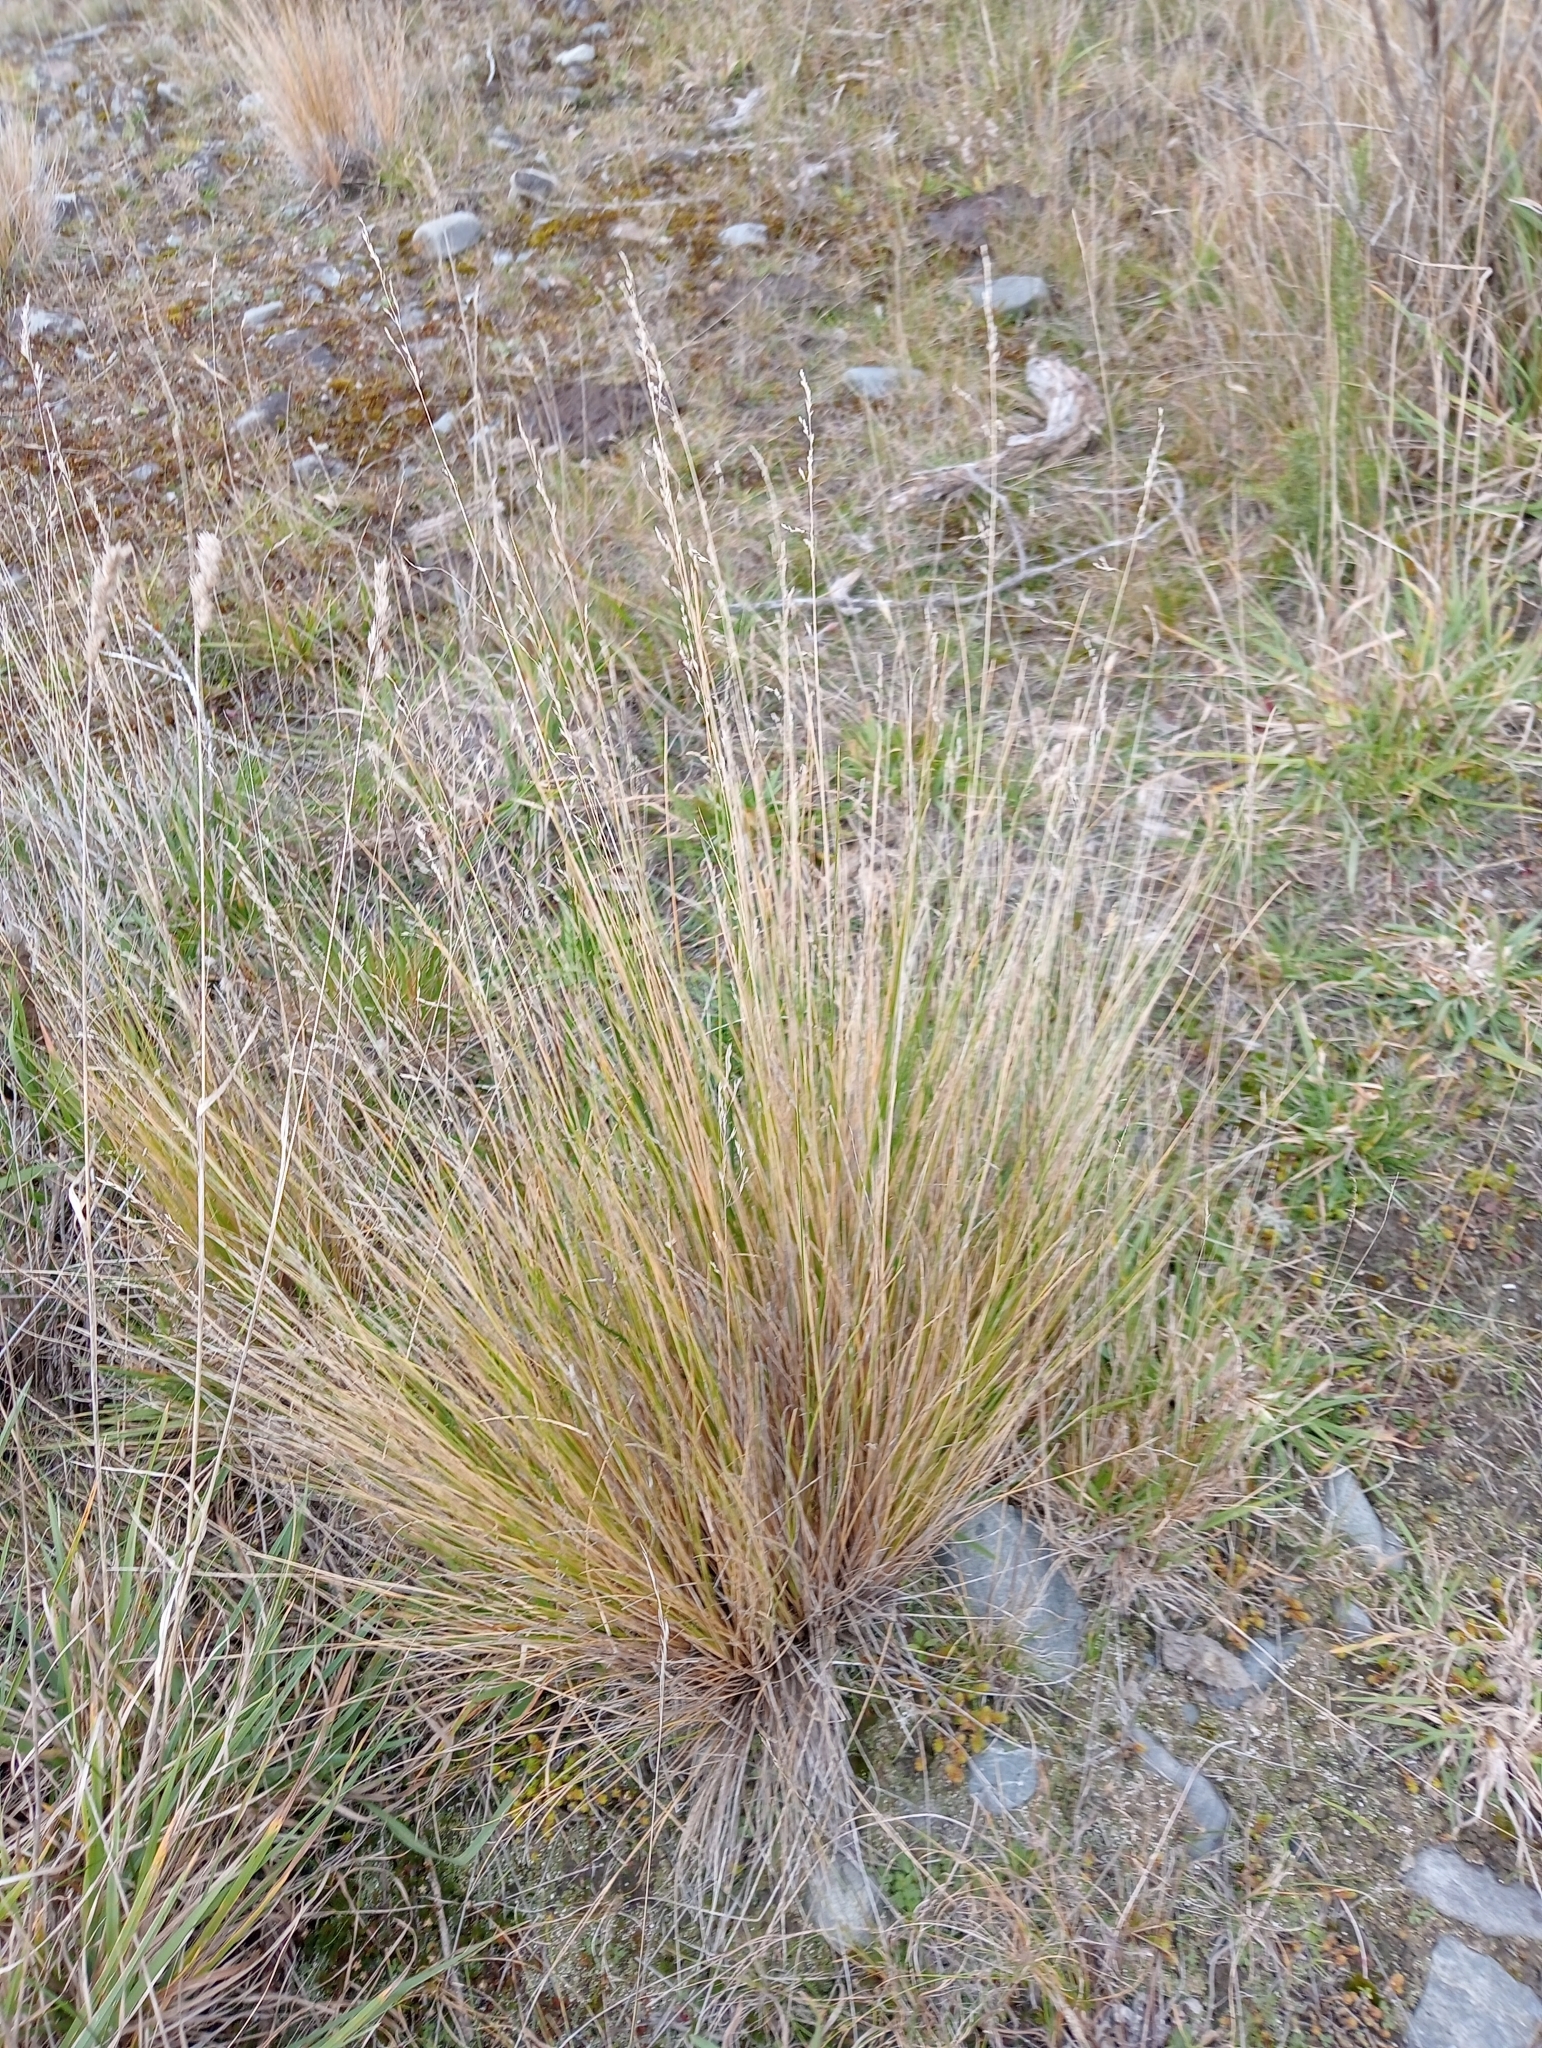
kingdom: Plantae
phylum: Tracheophyta
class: Liliopsida
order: Poales
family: Poaceae
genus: Poa
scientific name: Poa cita
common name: Silver tussock
